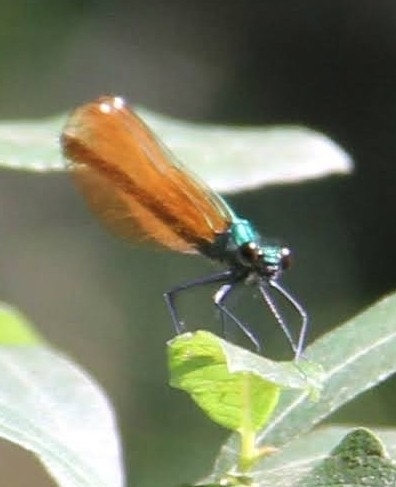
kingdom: Animalia
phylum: Arthropoda
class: Insecta
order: Odonata
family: Calopterygidae
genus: Calopteryx
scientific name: Calopteryx virgo
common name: Beautiful demoiselle
